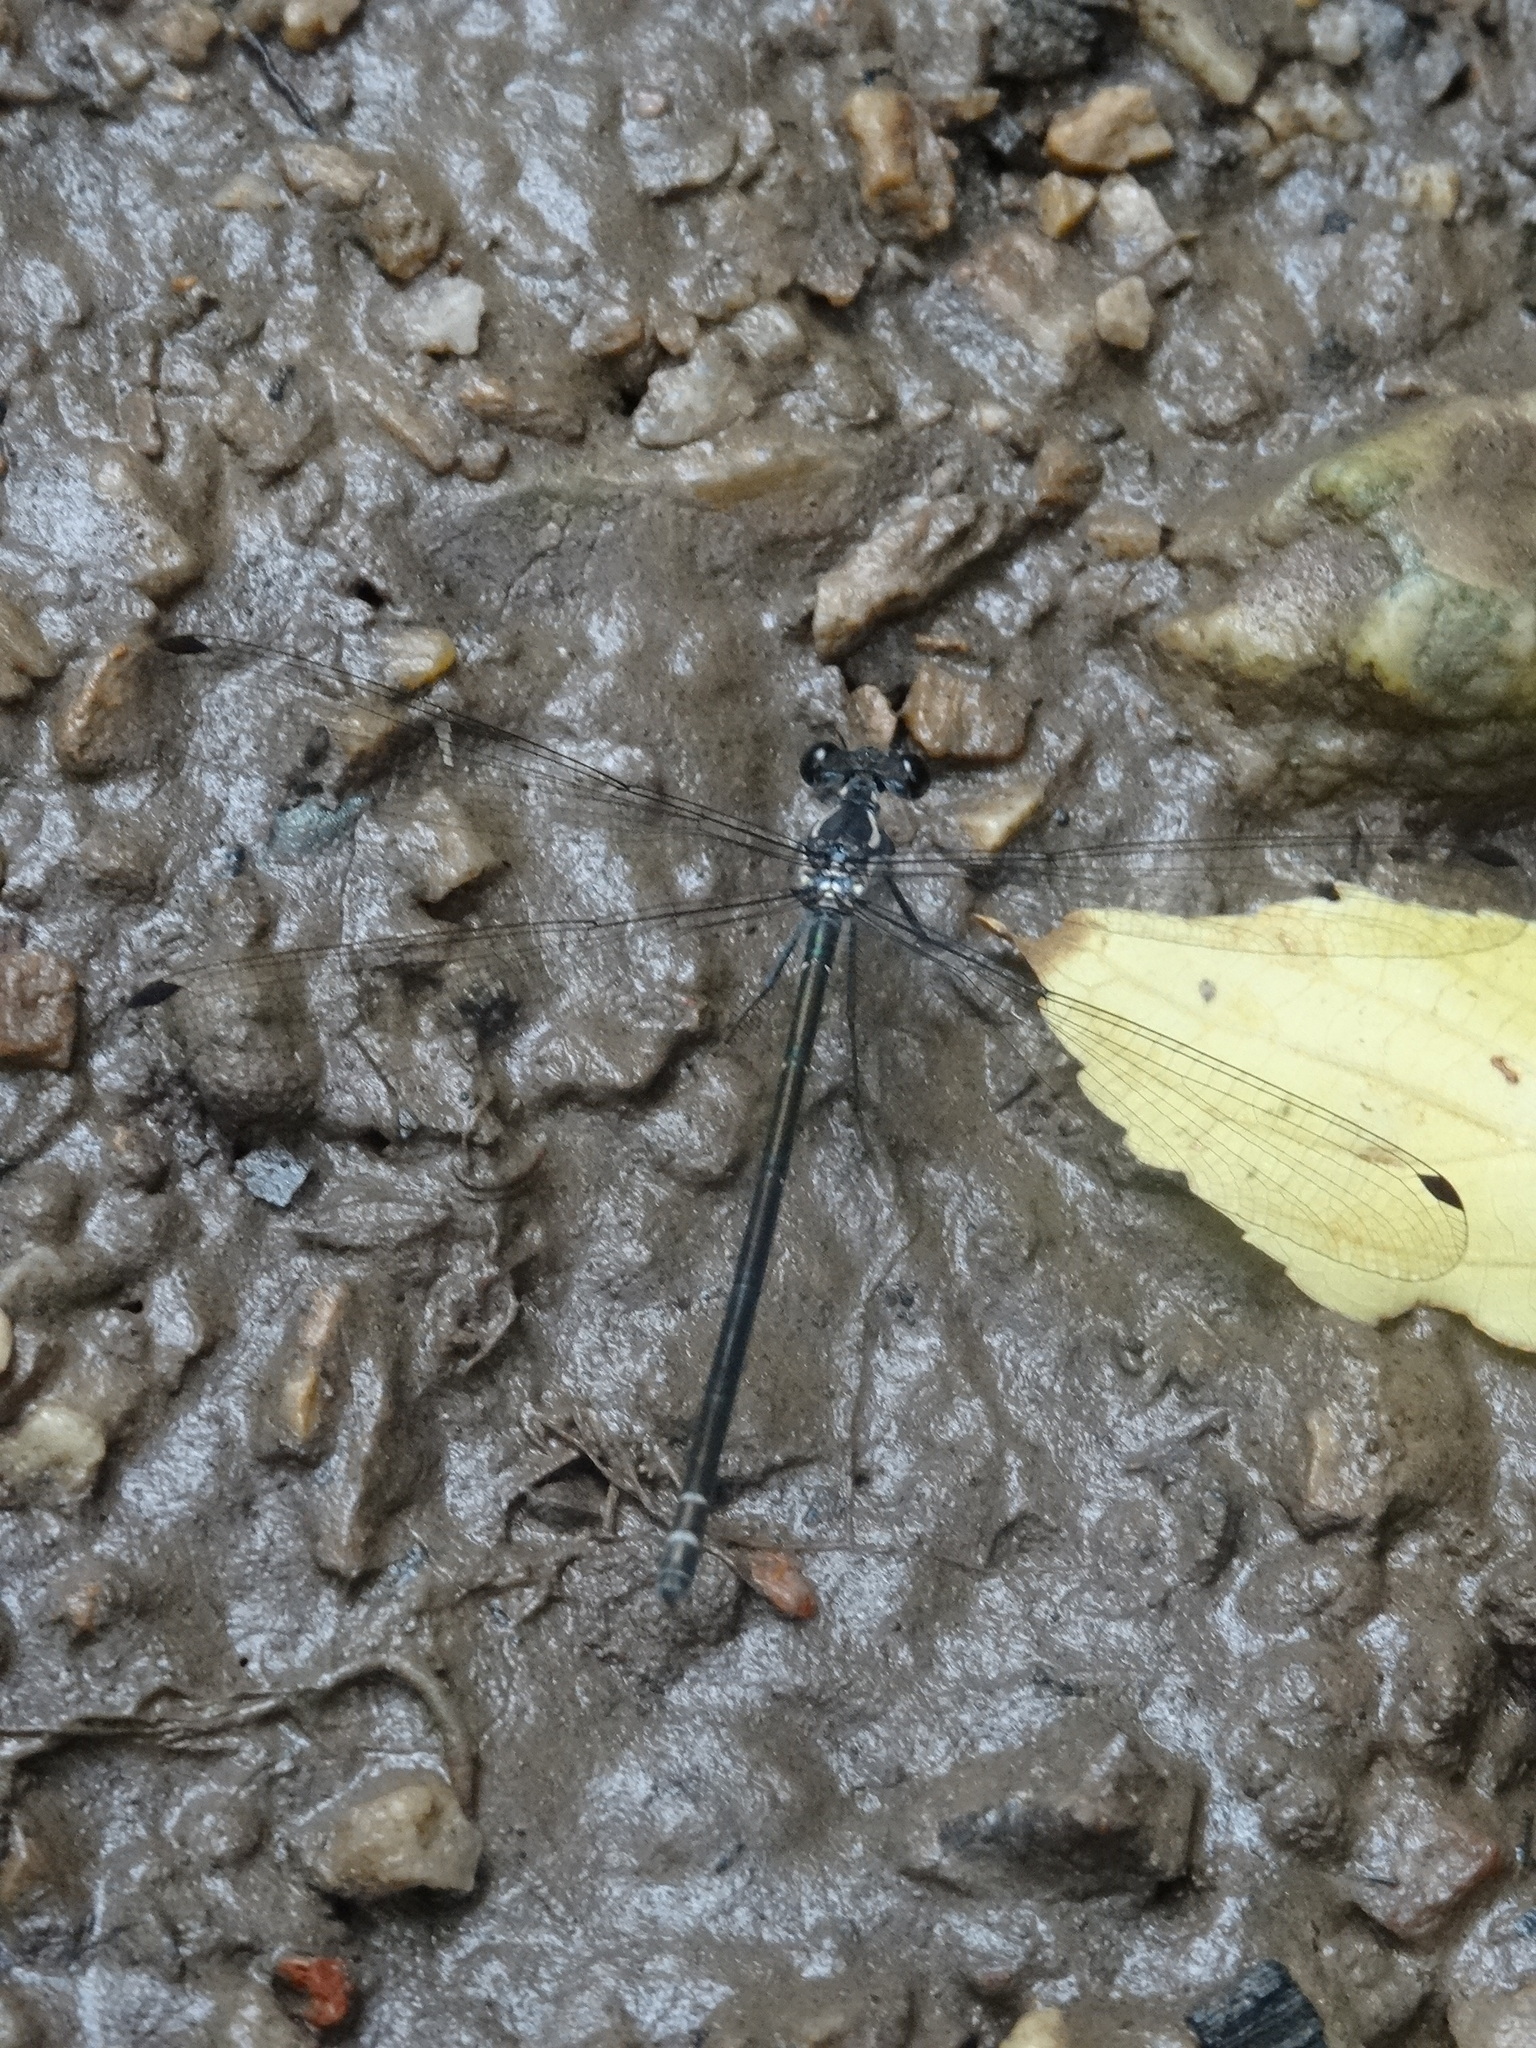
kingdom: Animalia
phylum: Arthropoda
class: Insecta
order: Odonata
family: Argiolestidae
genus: Austroargiolestes
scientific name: Austroargiolestes icteromelas
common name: Common flatwing
